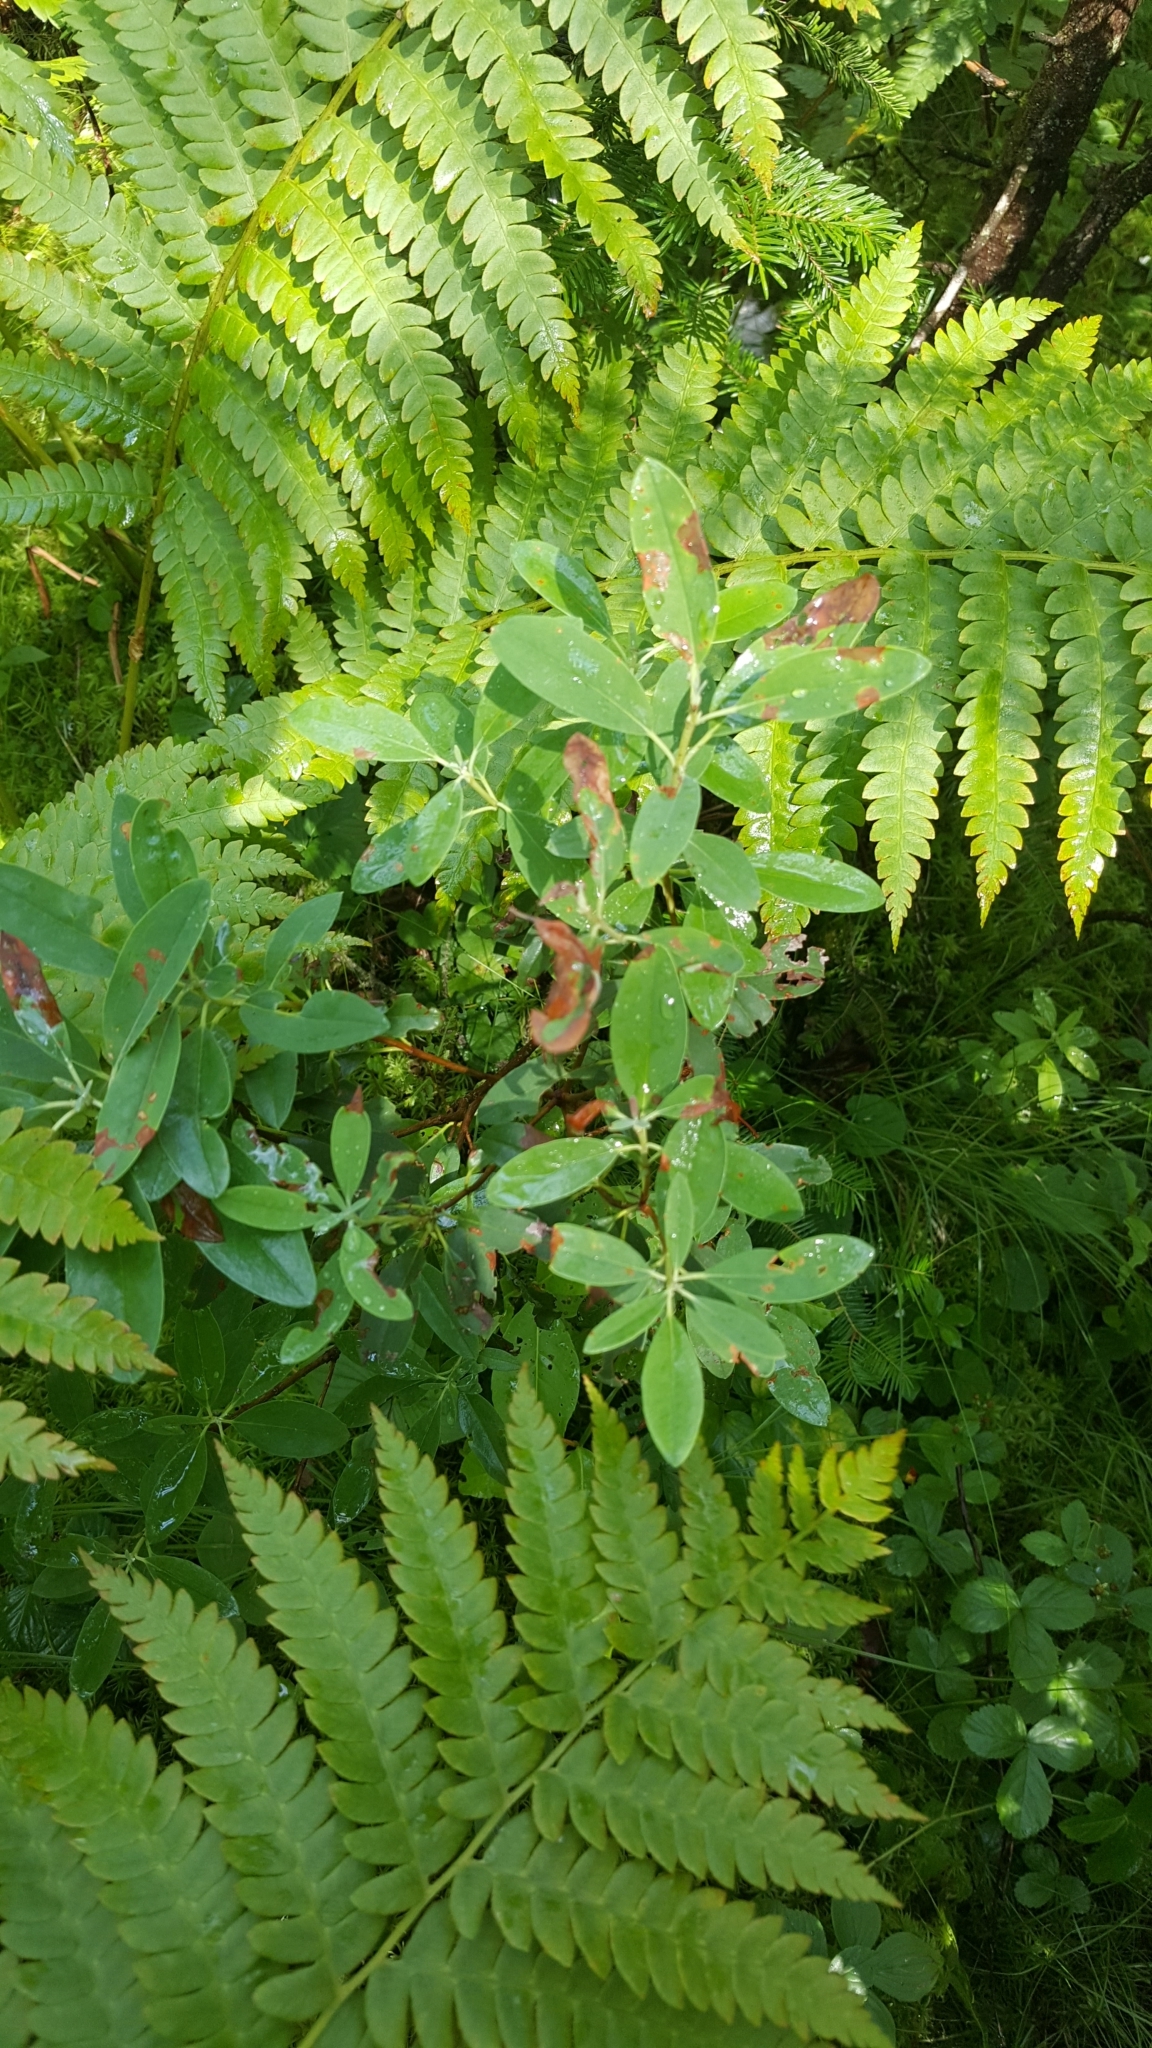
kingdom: Plantae
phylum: Tracheophyta
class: Magnoliopsida
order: Ericales
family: Ericaceae
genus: Kalmia
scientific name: Kalmia angustifolia
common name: Sheep-laurel
